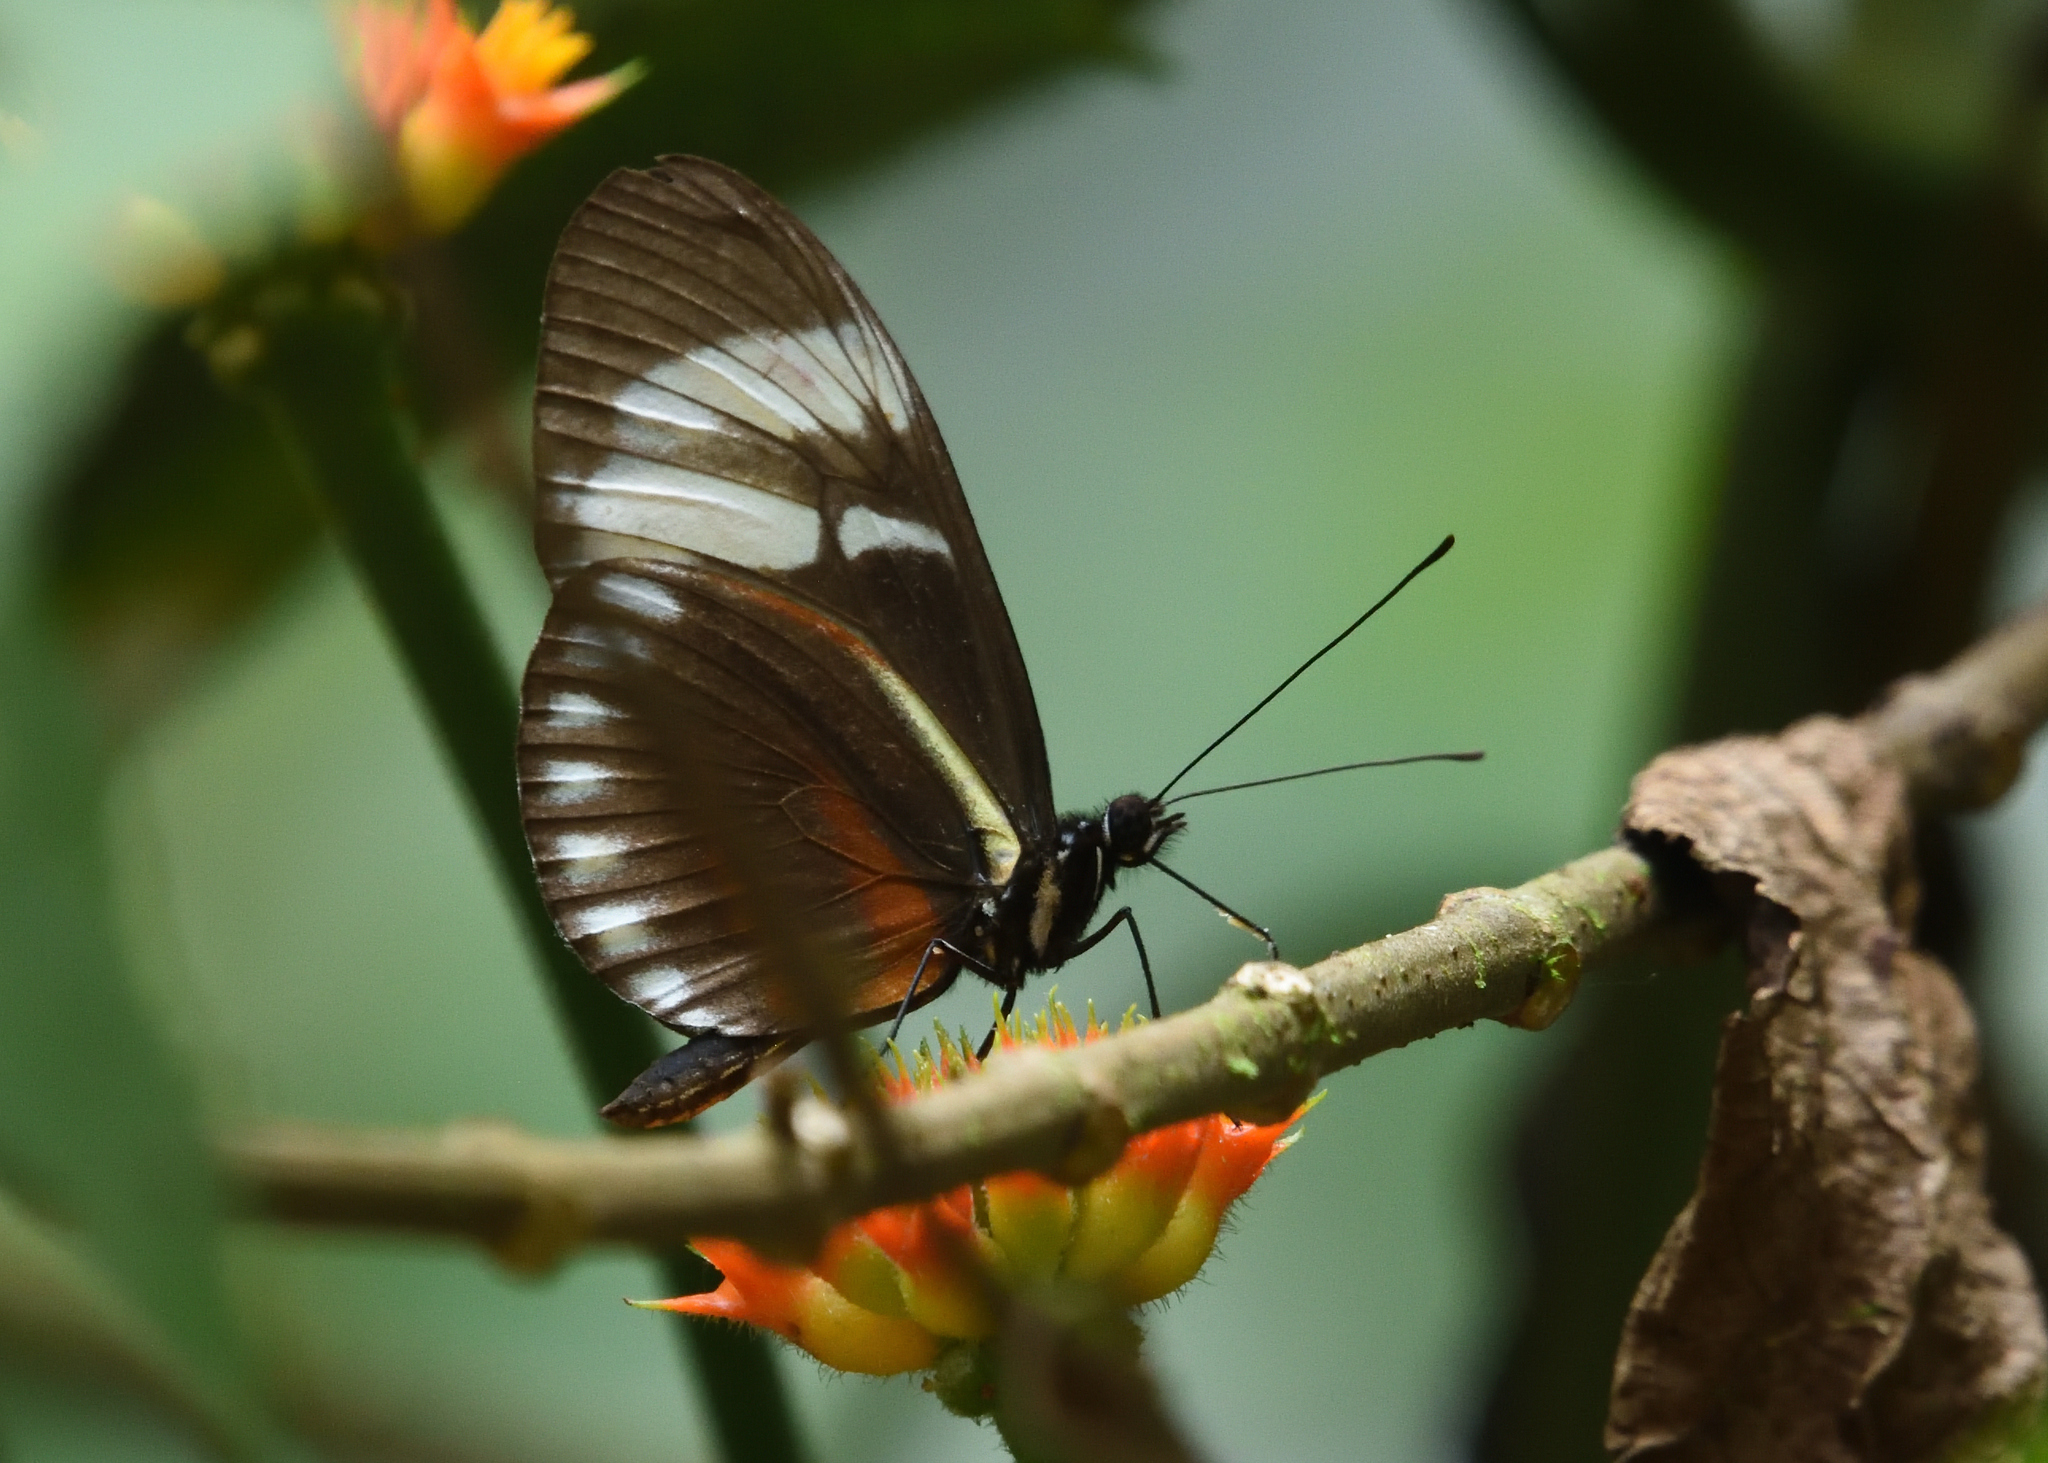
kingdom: Animalia
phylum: Arthropoda
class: Insecta
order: Lepidoptera
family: Nymphalidae
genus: Heliconius
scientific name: Heliconius cydno
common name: Cydno longwing
